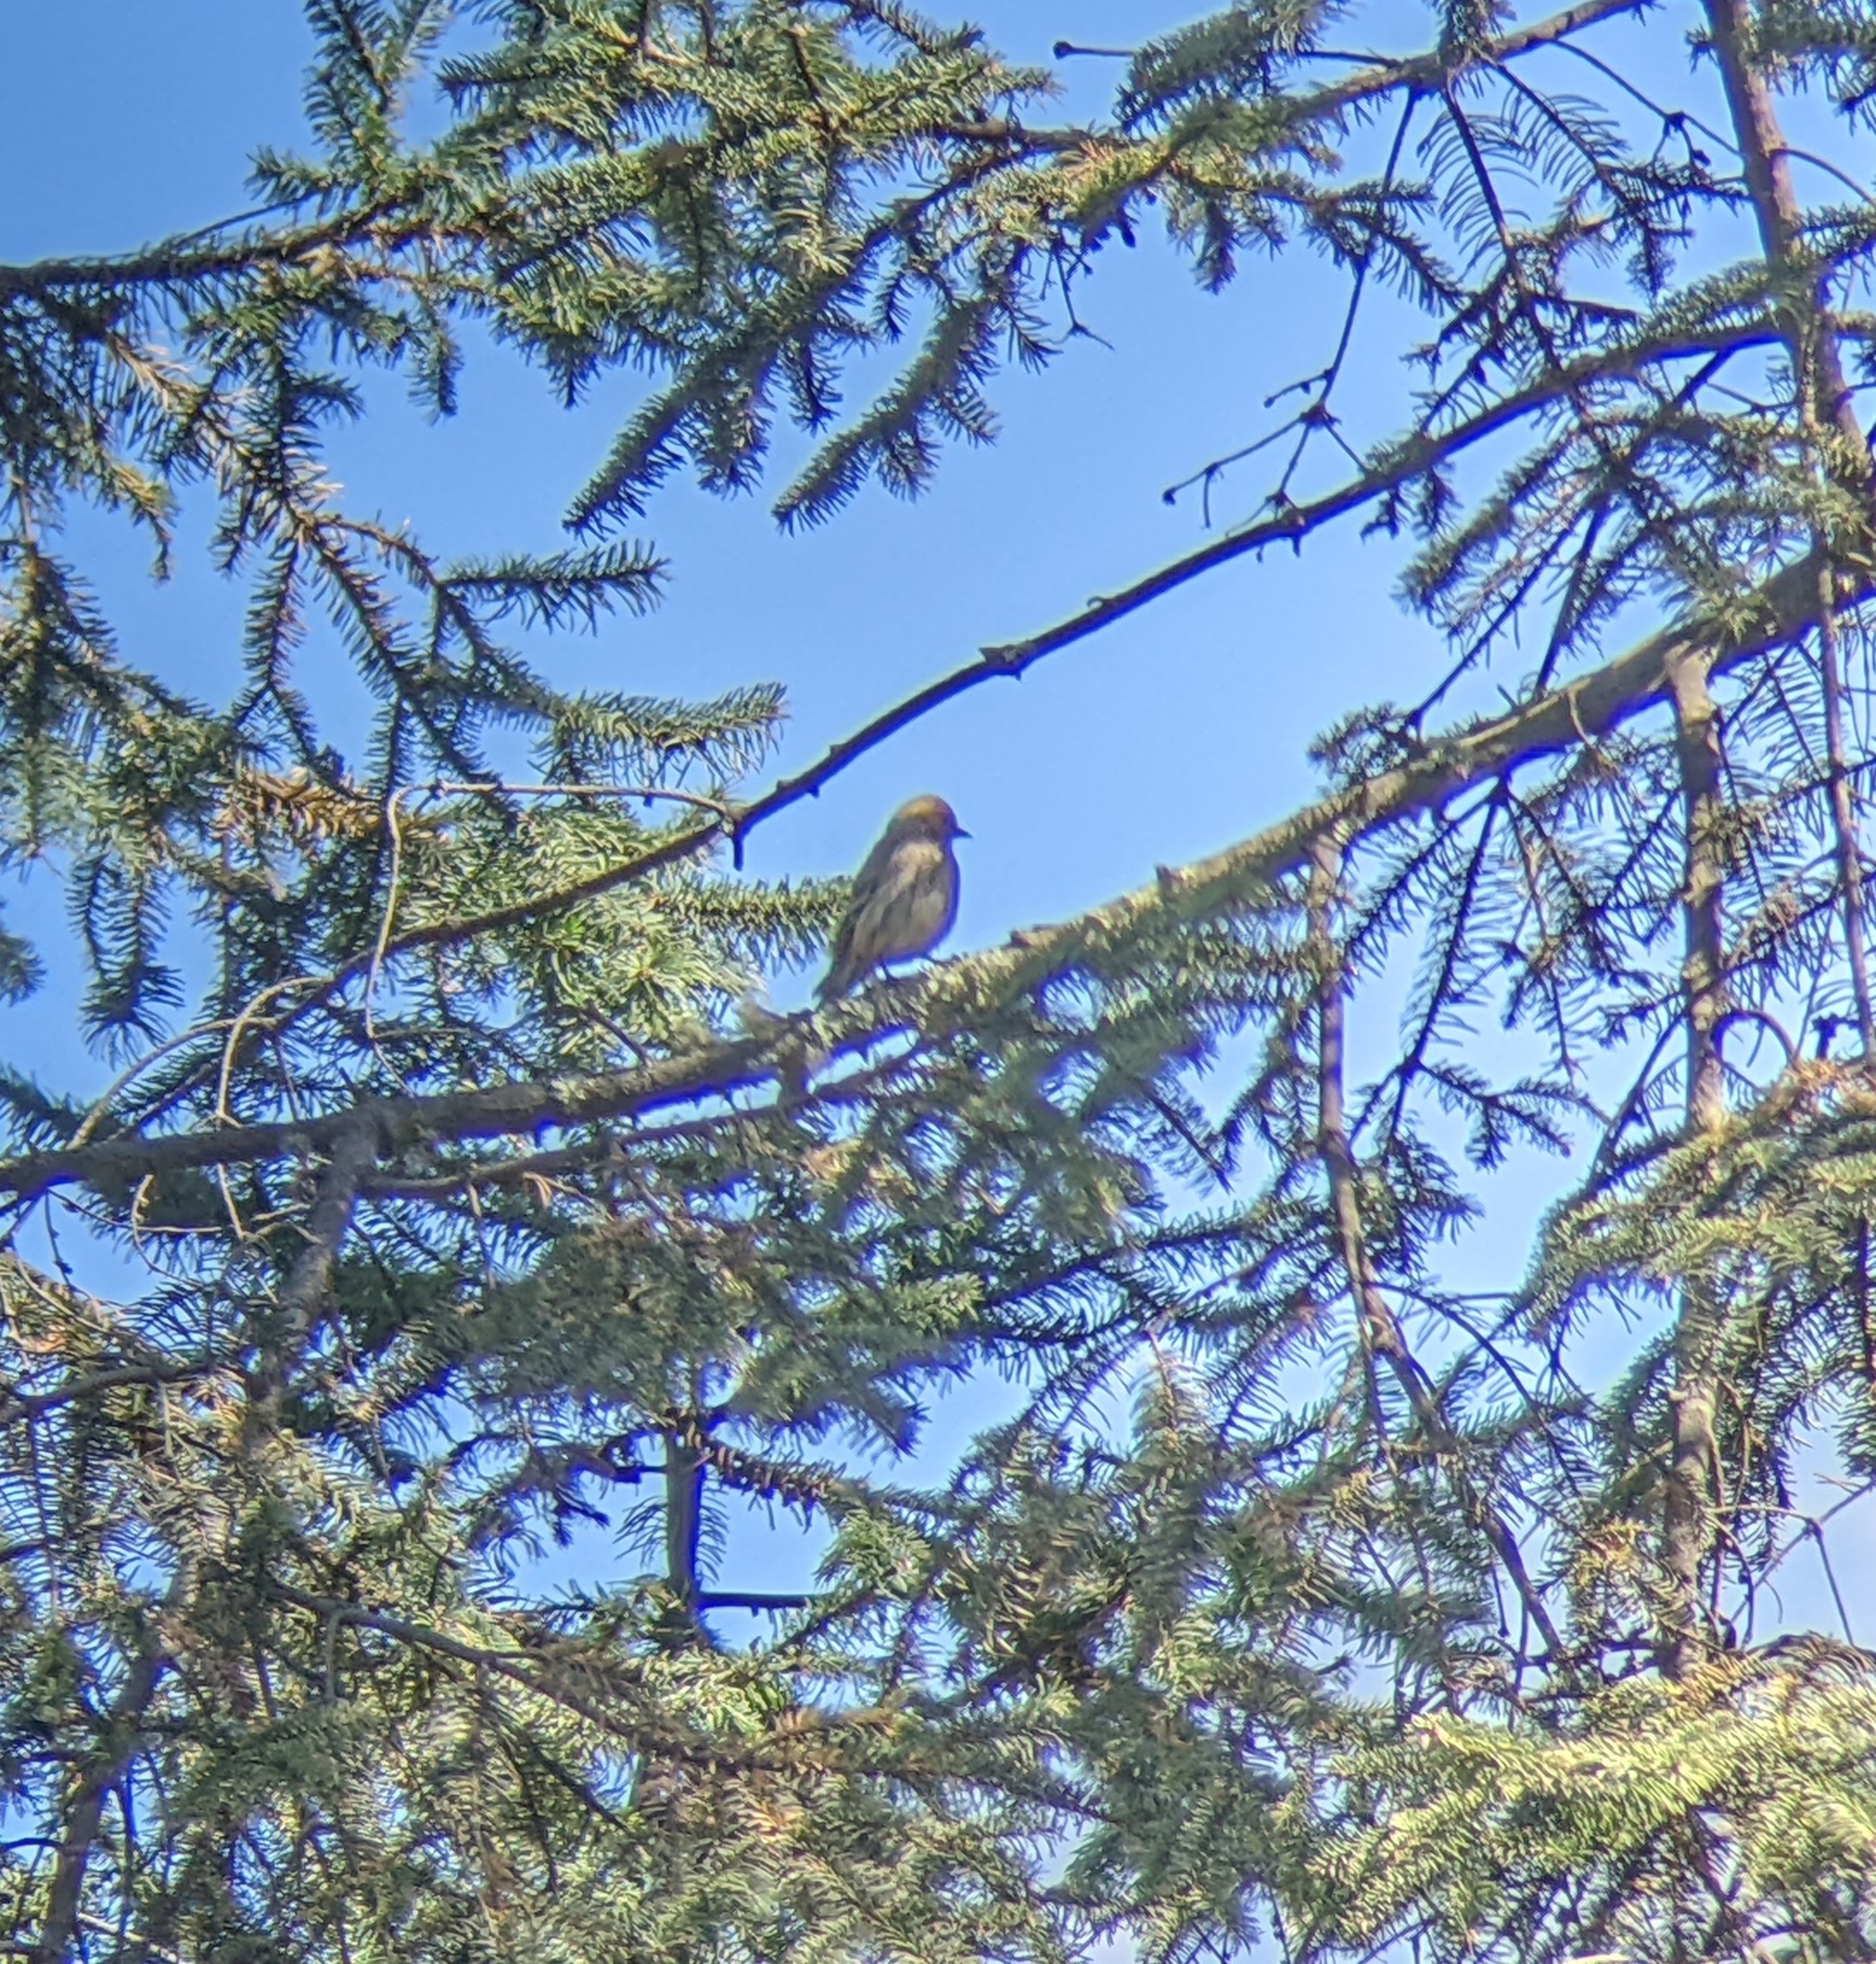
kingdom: Animalia
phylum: Chordata
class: Aves
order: Passeriformes
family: Fringillidae
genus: Spinus
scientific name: Spinus pinus
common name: Pine siskin
